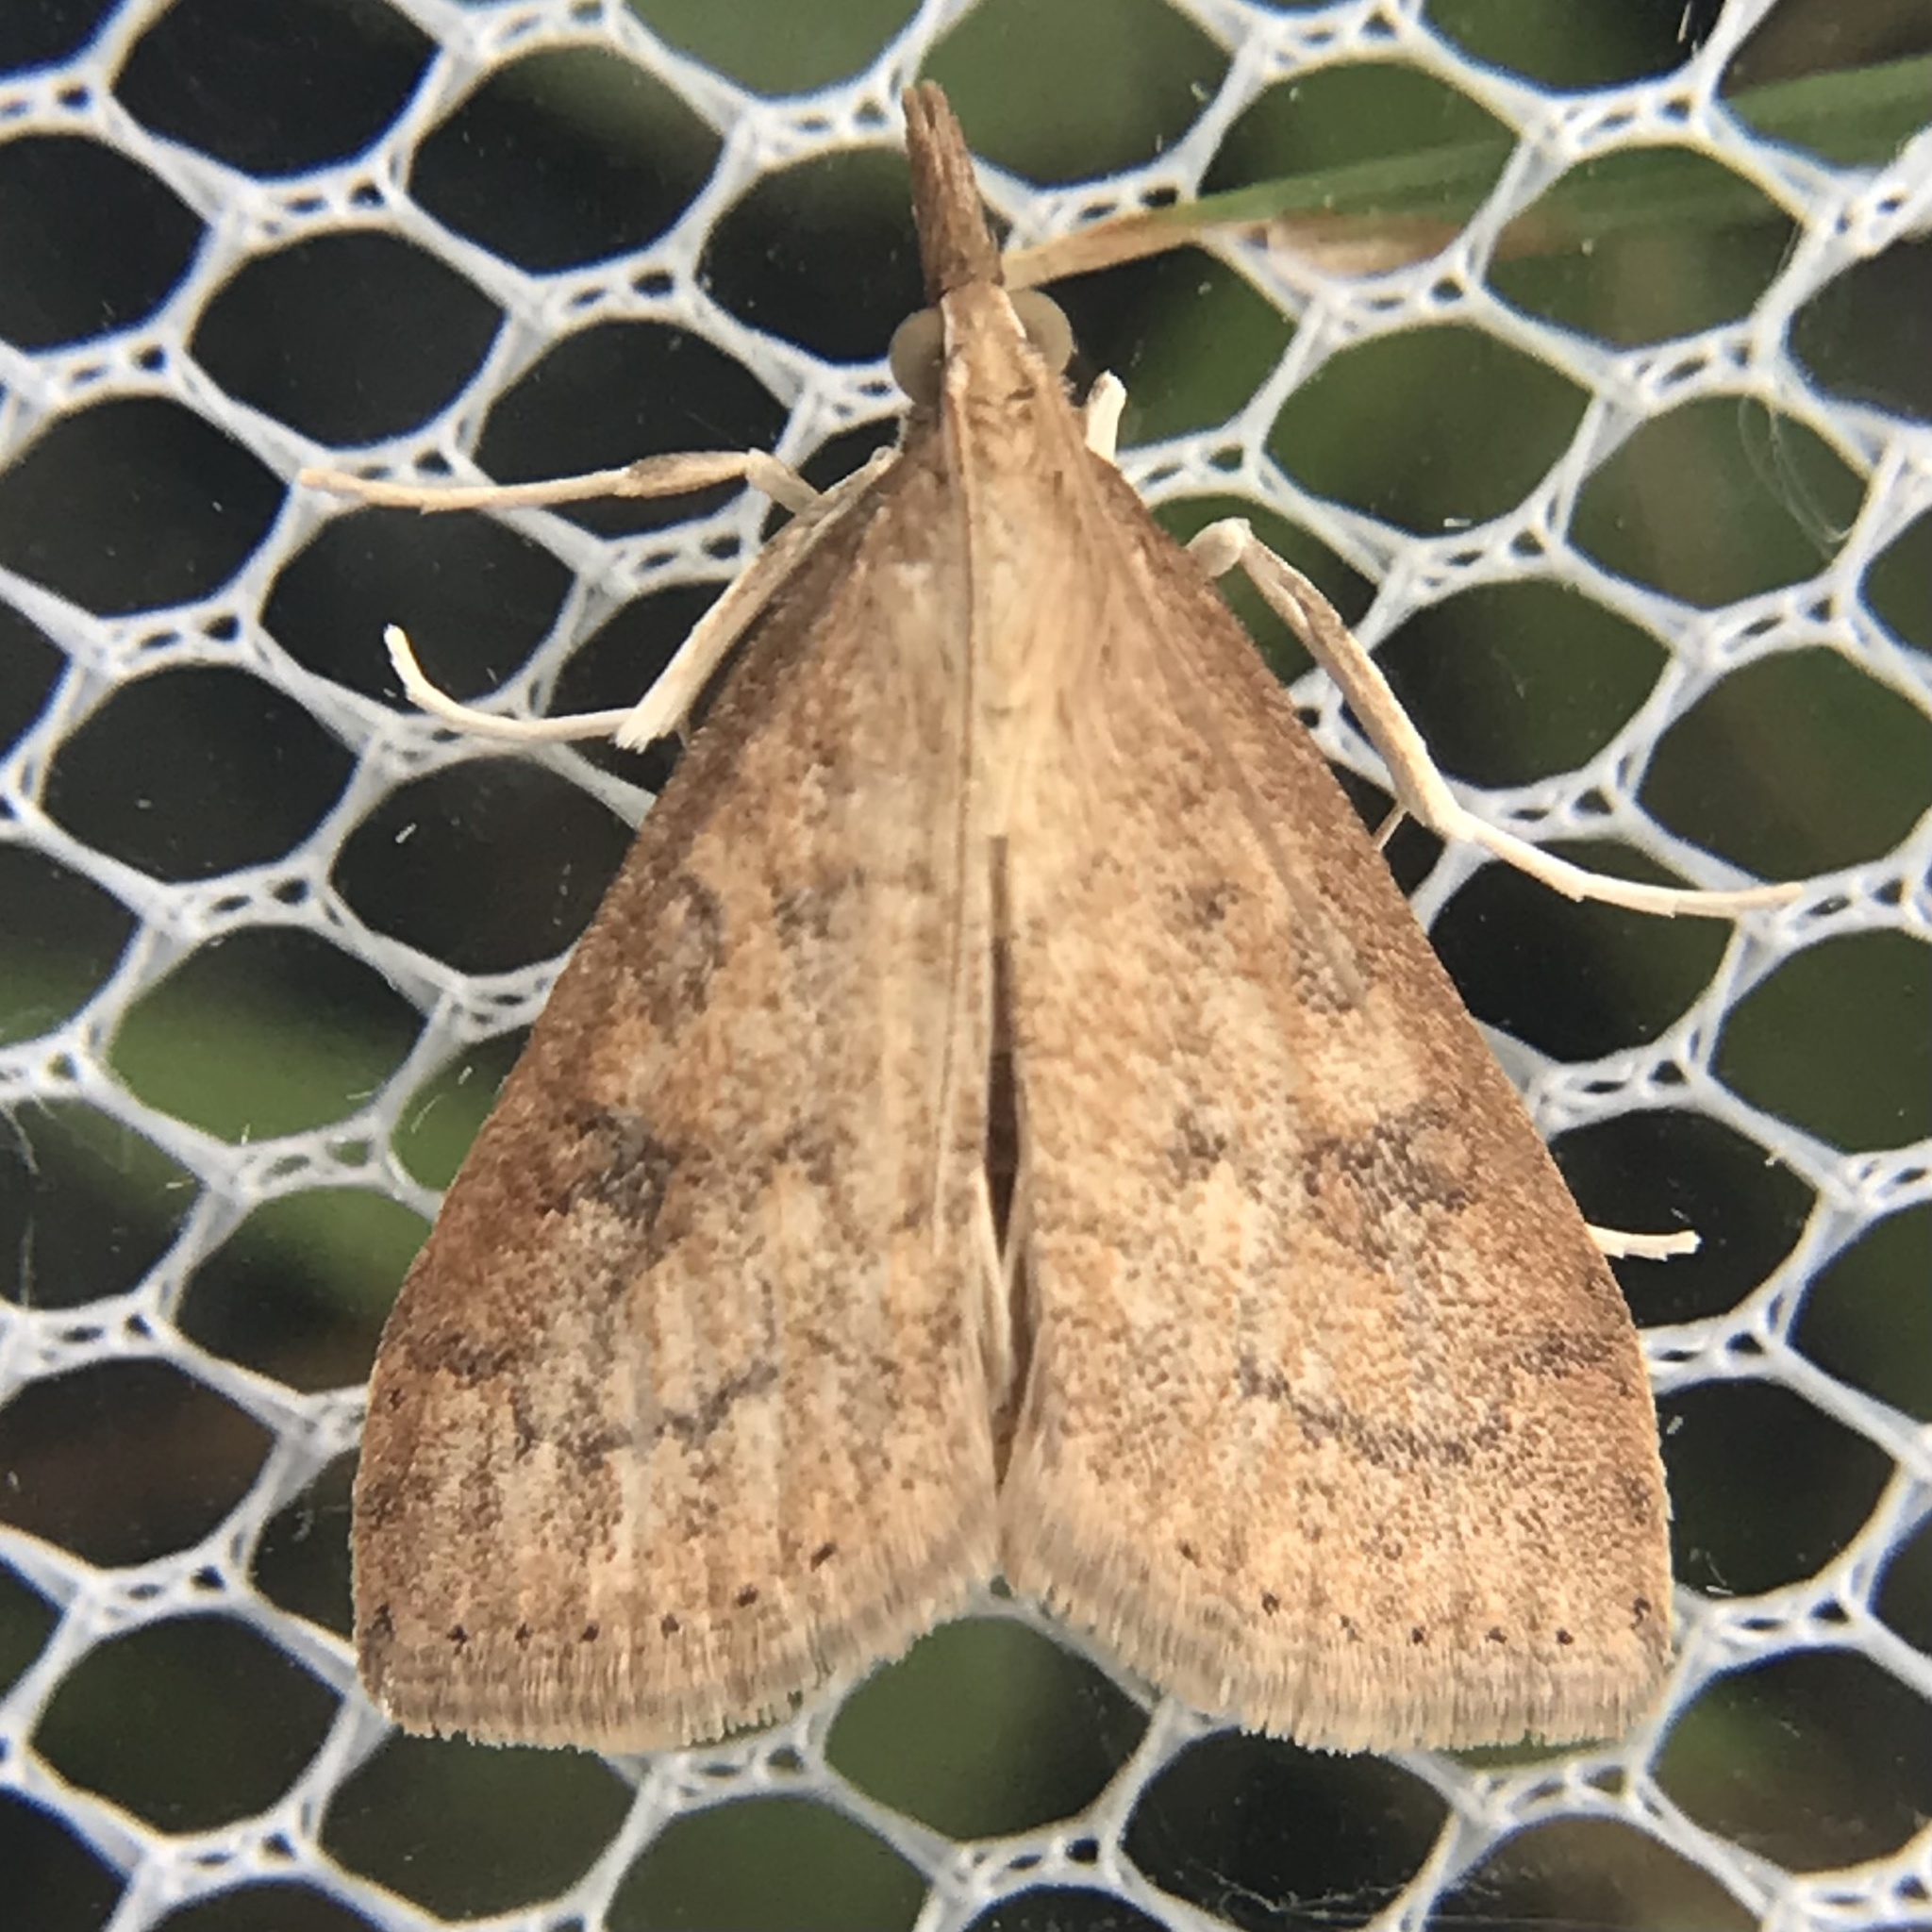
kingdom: Animalia
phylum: Arthropoda
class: Insecta
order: Lepidoptera
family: Crambidae
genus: Udea
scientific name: Udea rubigalis
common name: Celery leaftier moth
